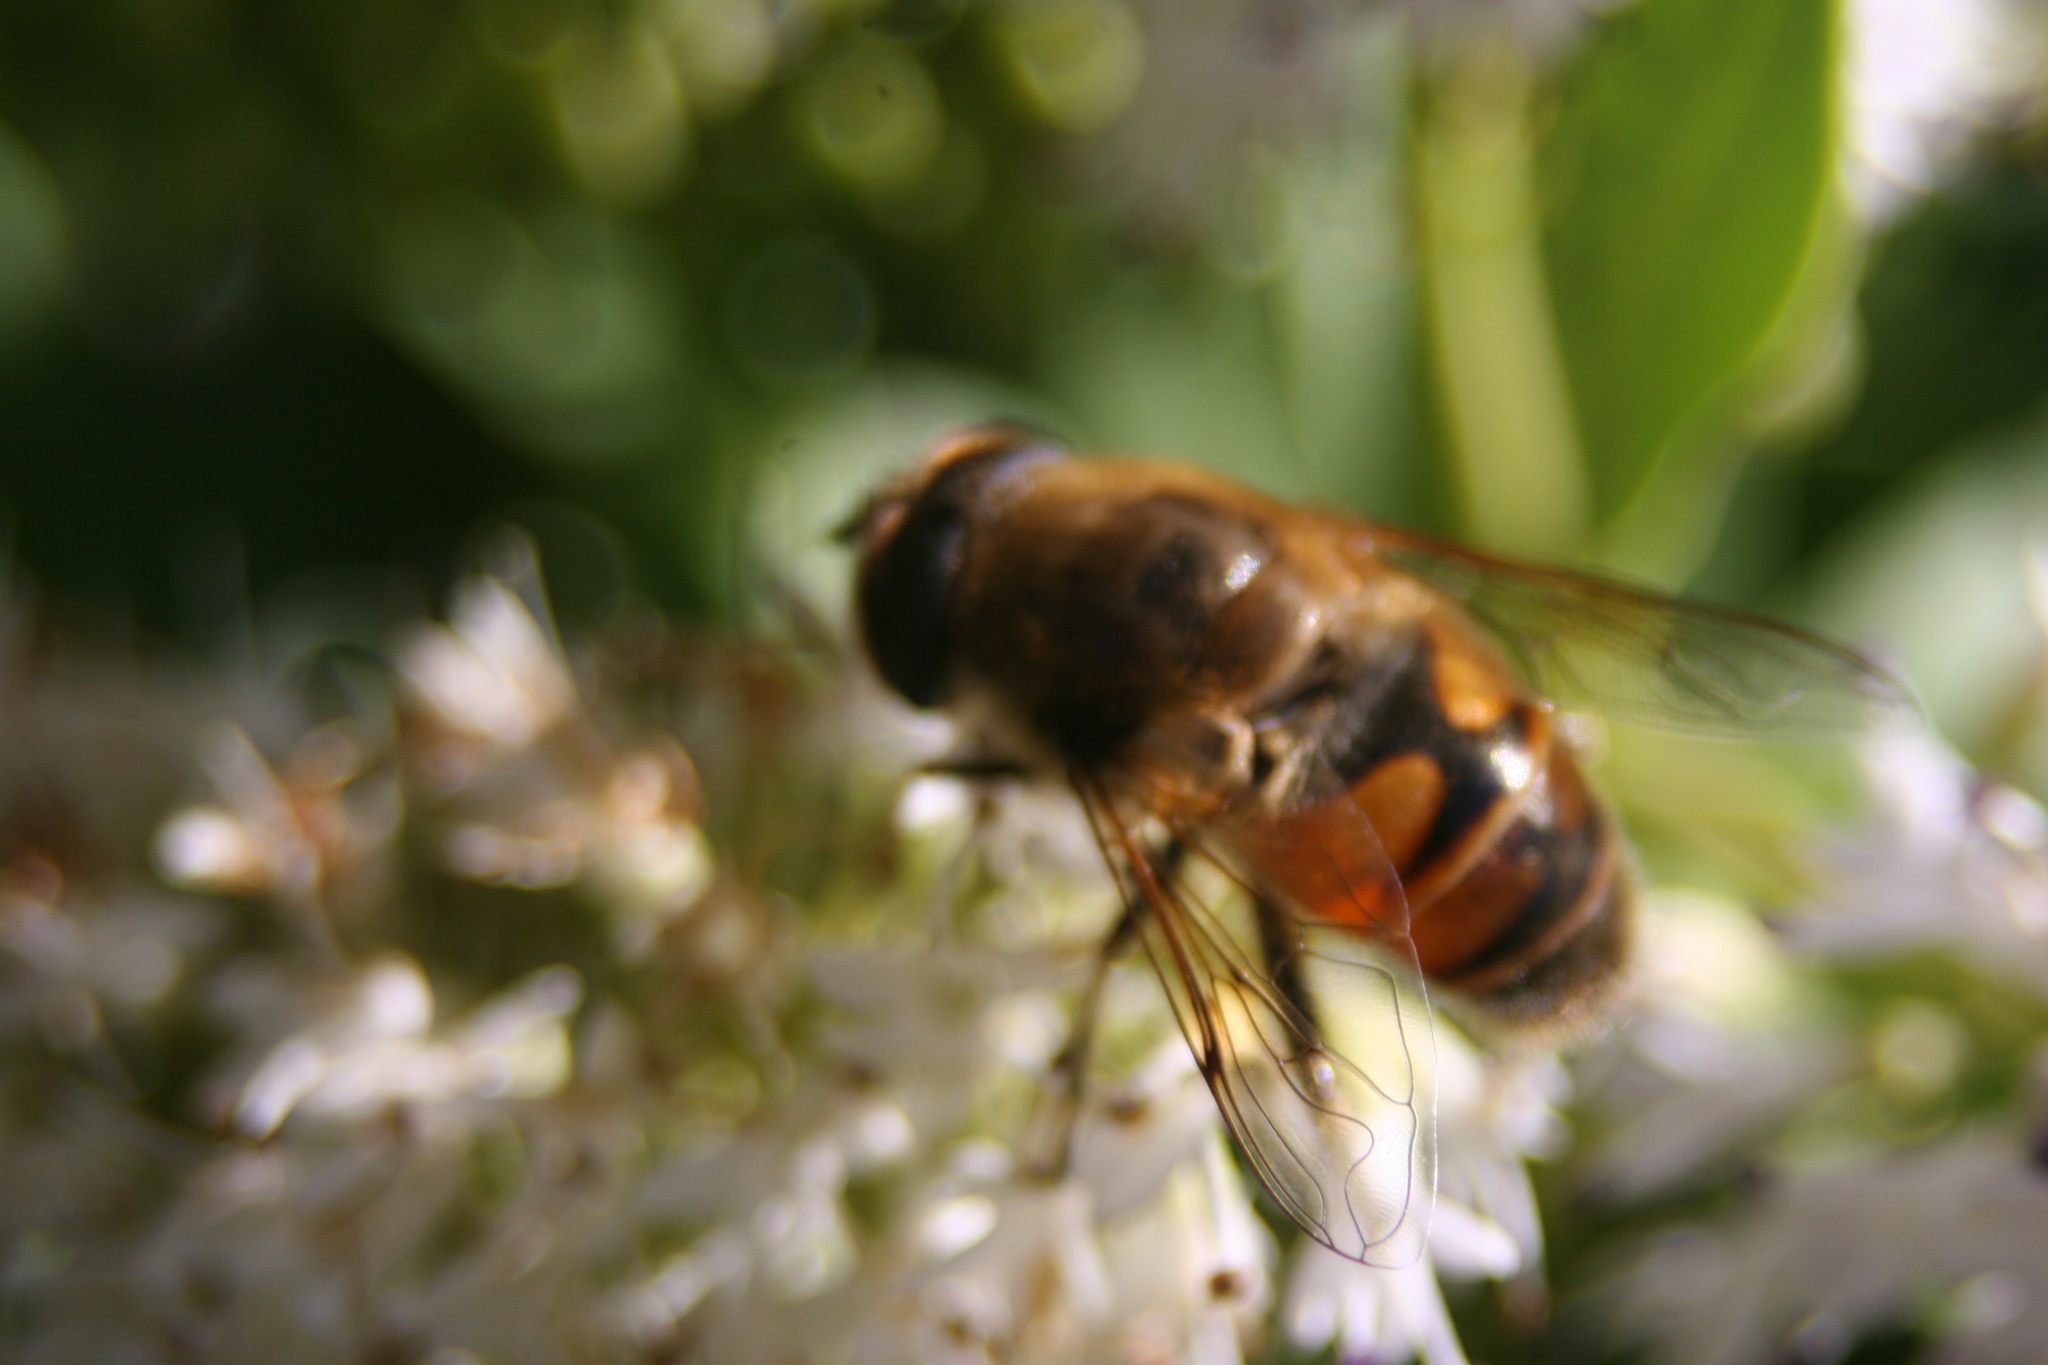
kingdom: Animalia
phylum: Arthropoda
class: Insecta
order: Diptera
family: Syrphidae
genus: Eristalis
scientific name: Eristalis tenax
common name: Drone fly
